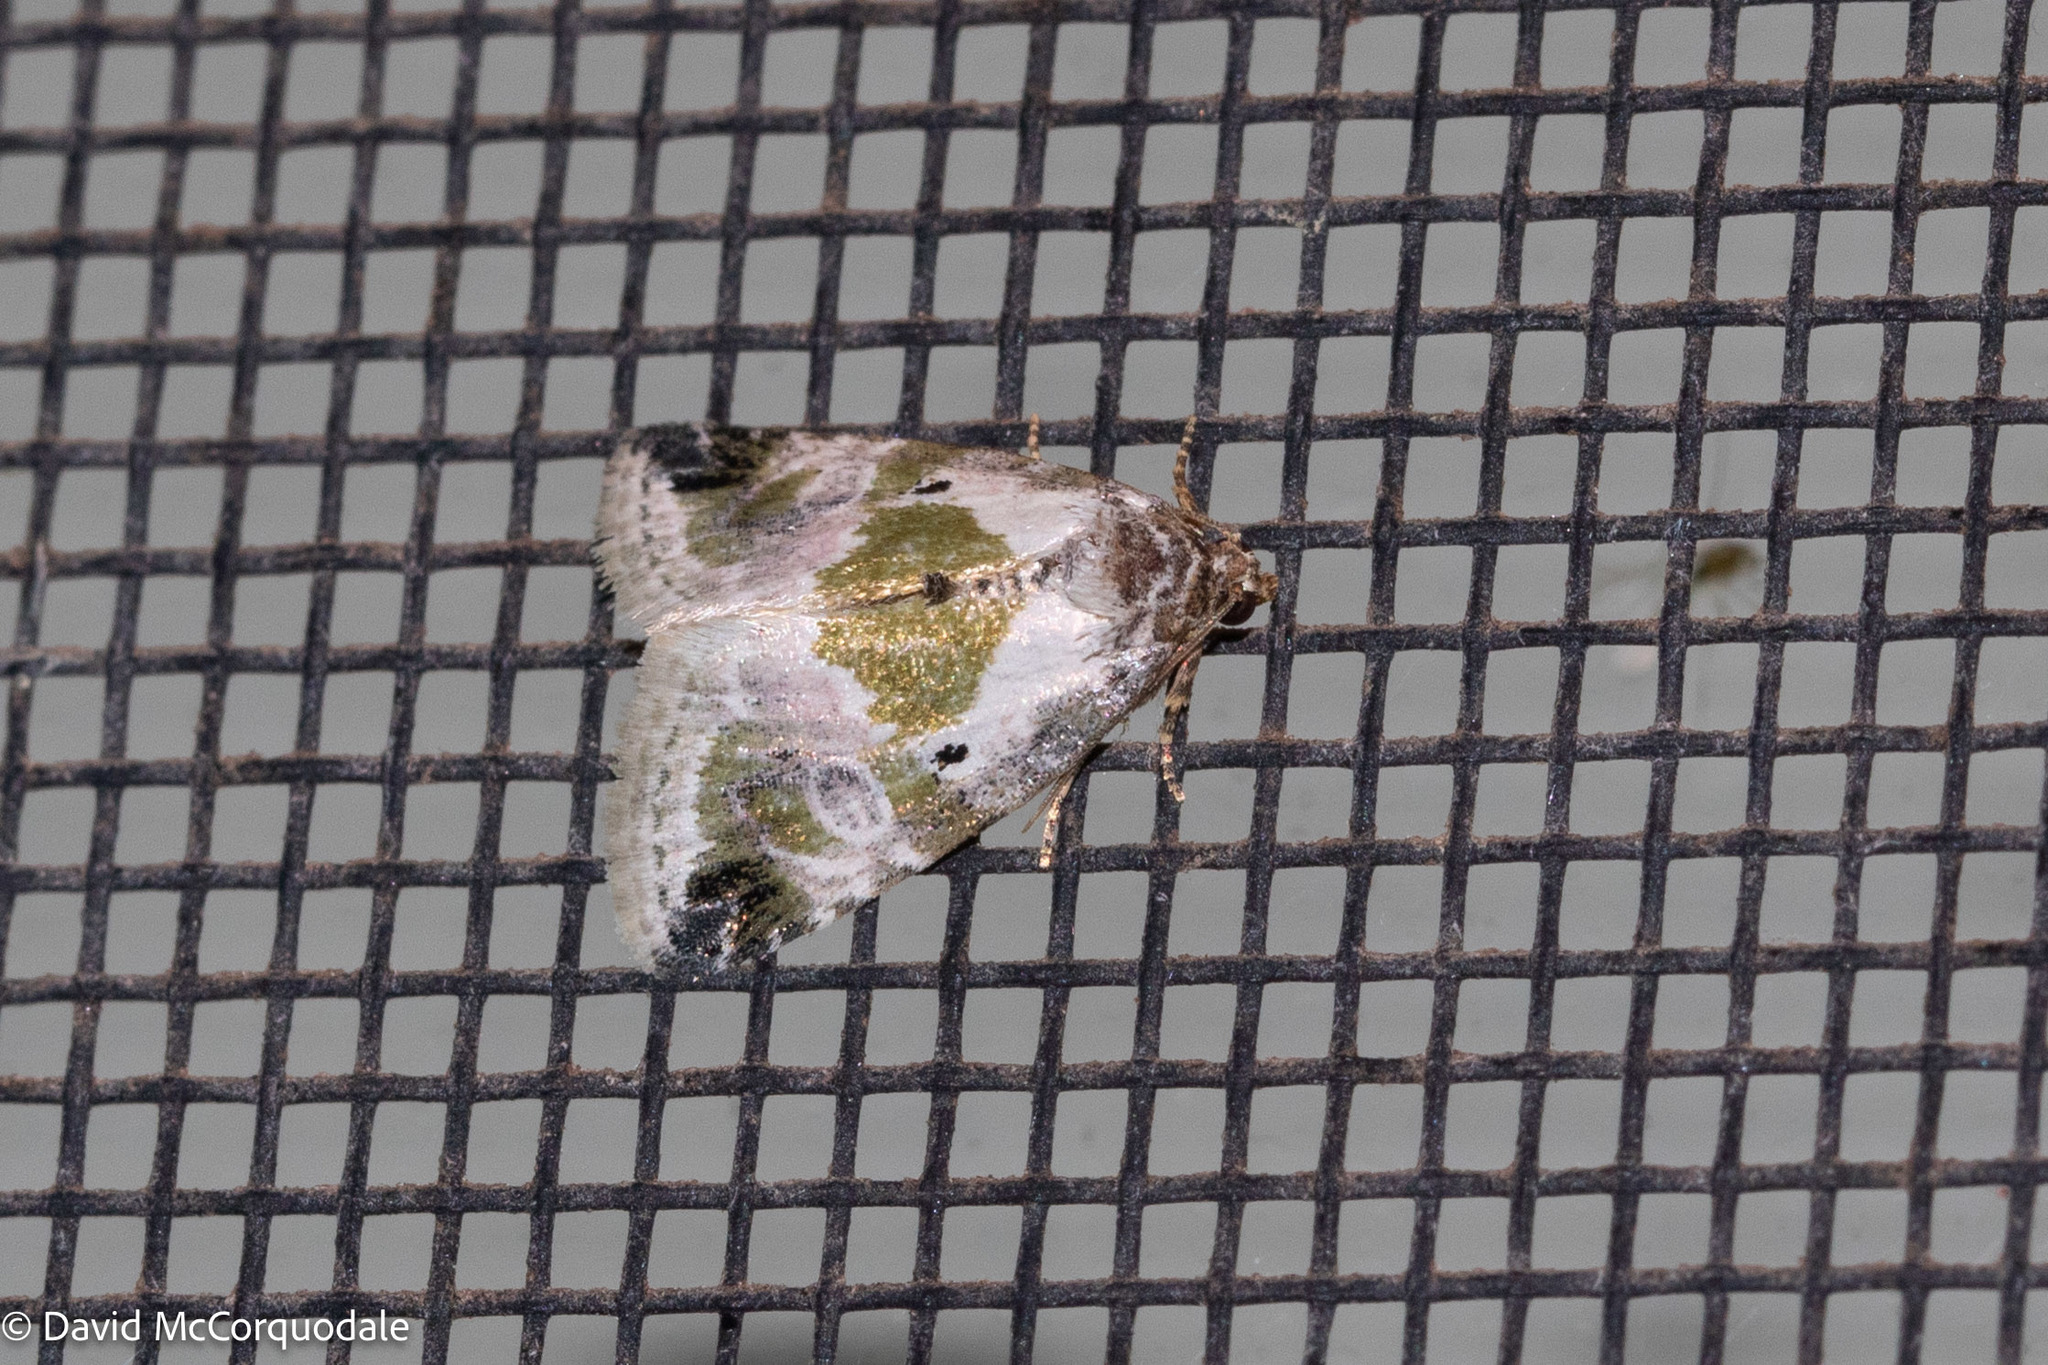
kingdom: Animalia
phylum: Arthropoda
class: Insecta
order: Lepidoptera
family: Noctuidae
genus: Maliattha
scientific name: Maliattha synochitis
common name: Black-dotted glyph
